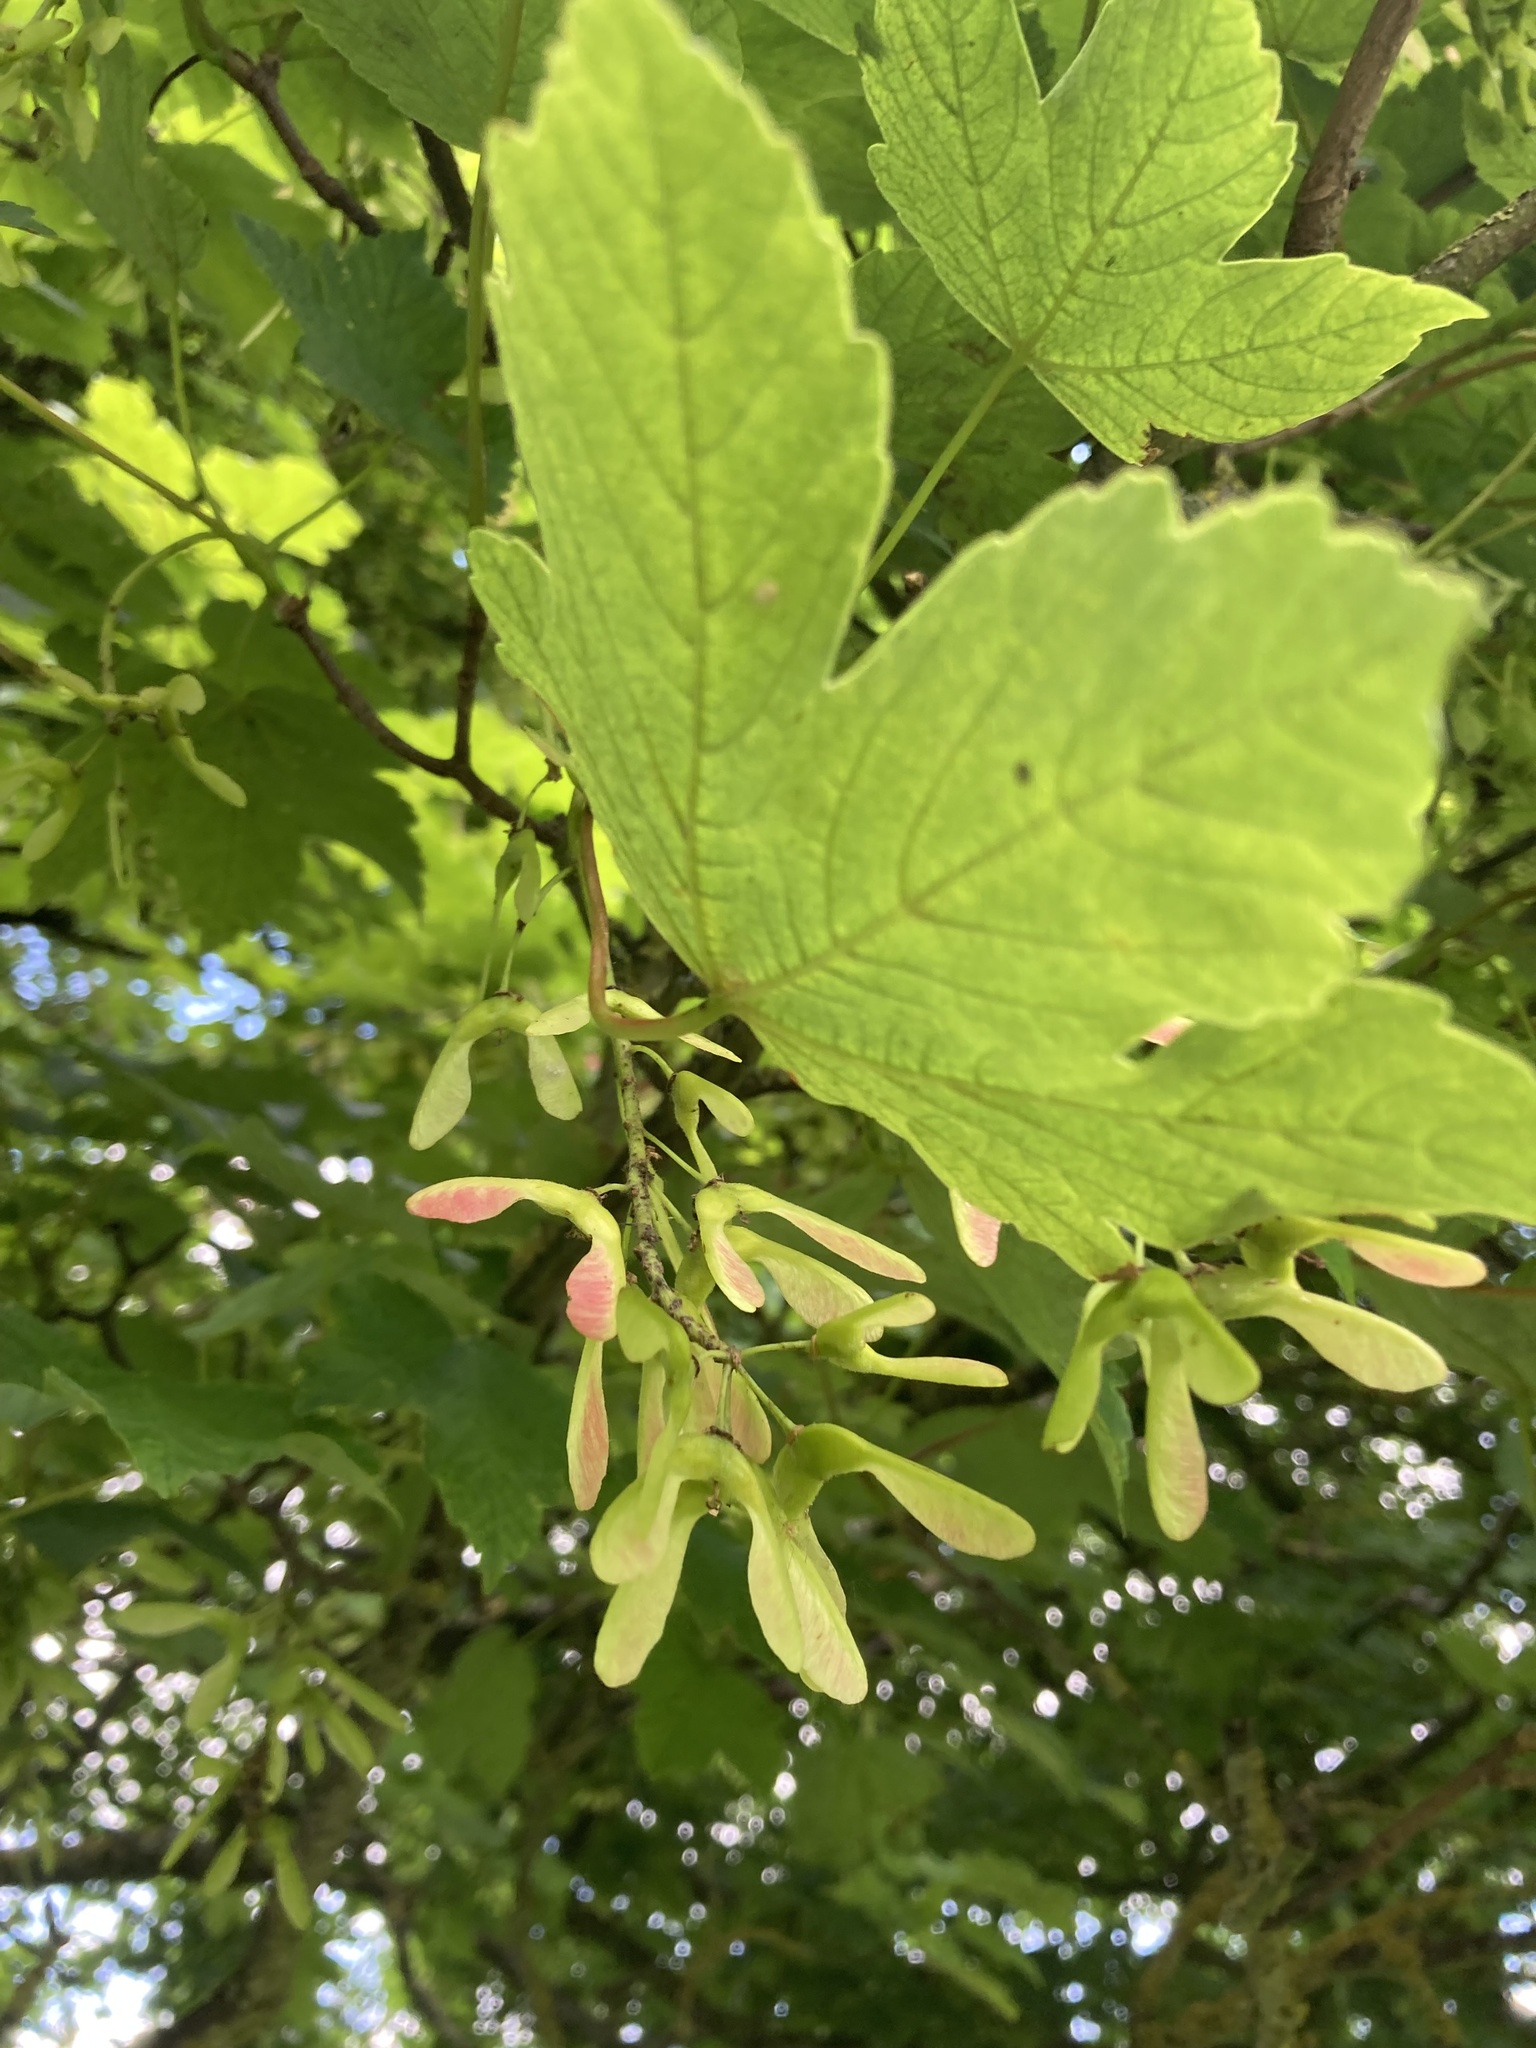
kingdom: Plantae
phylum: Tracheophyta
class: Magnoliopsida
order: Sapindales
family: Sapindaceae
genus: Acer
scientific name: Acer pseudoplatanus
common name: Sycamore
